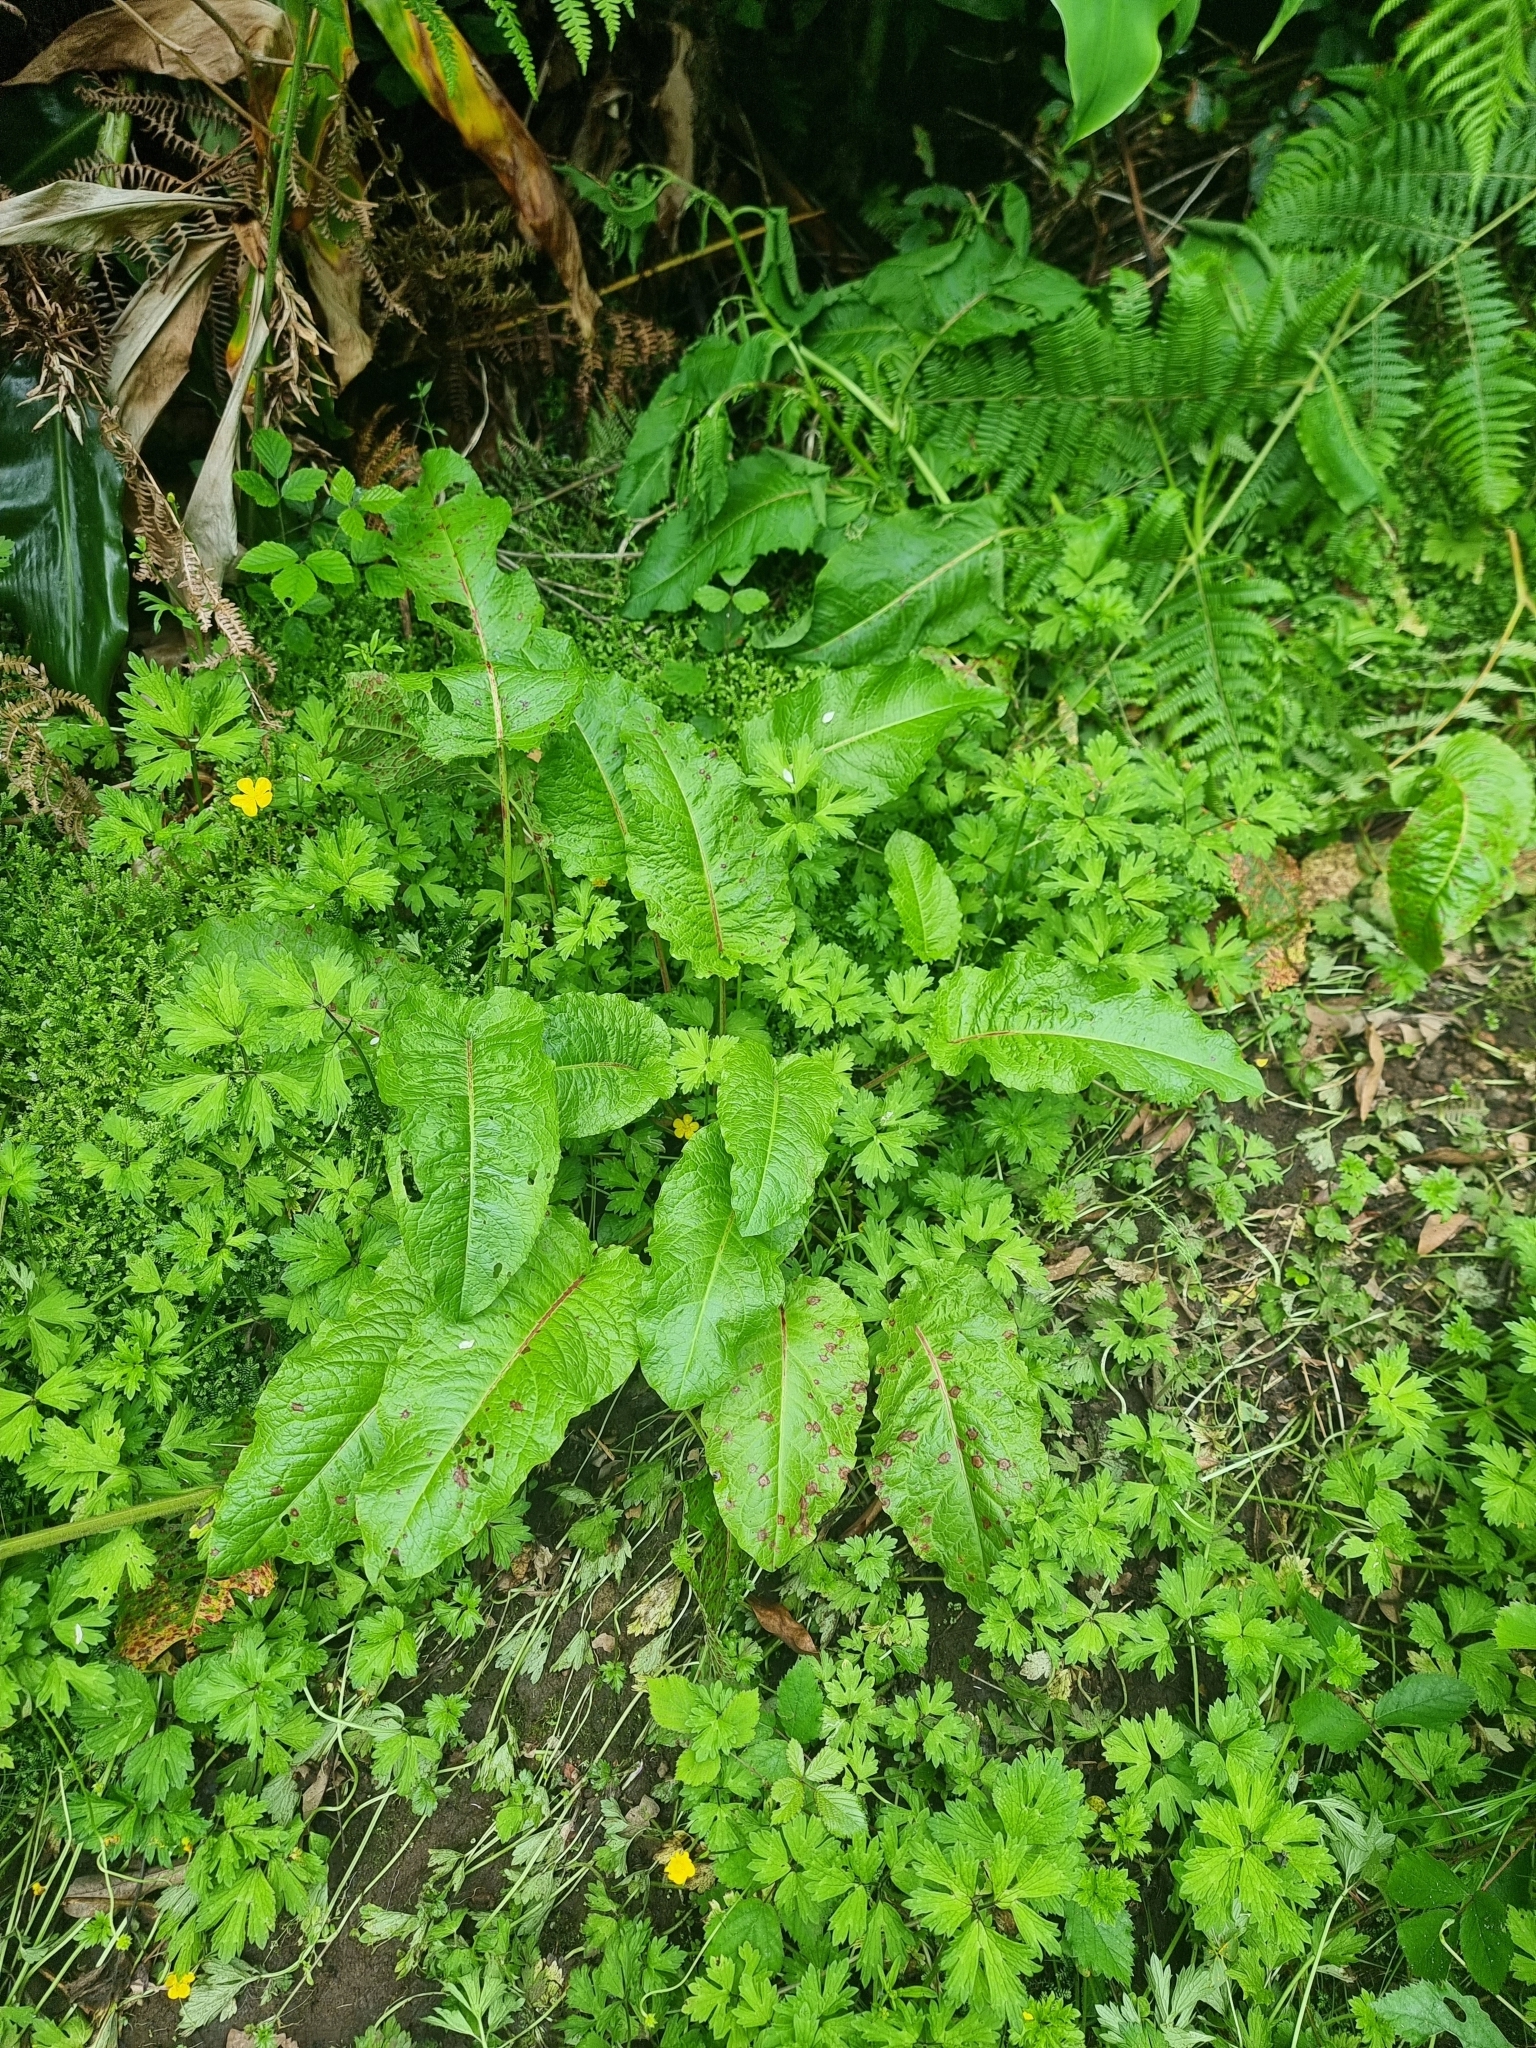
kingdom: Plantae
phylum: Tracheophyta
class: Magnoliopsida
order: Caryophyllales
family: Polygonaceae
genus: Rumex
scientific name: Rumex obtusifolius
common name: Bitter dock
